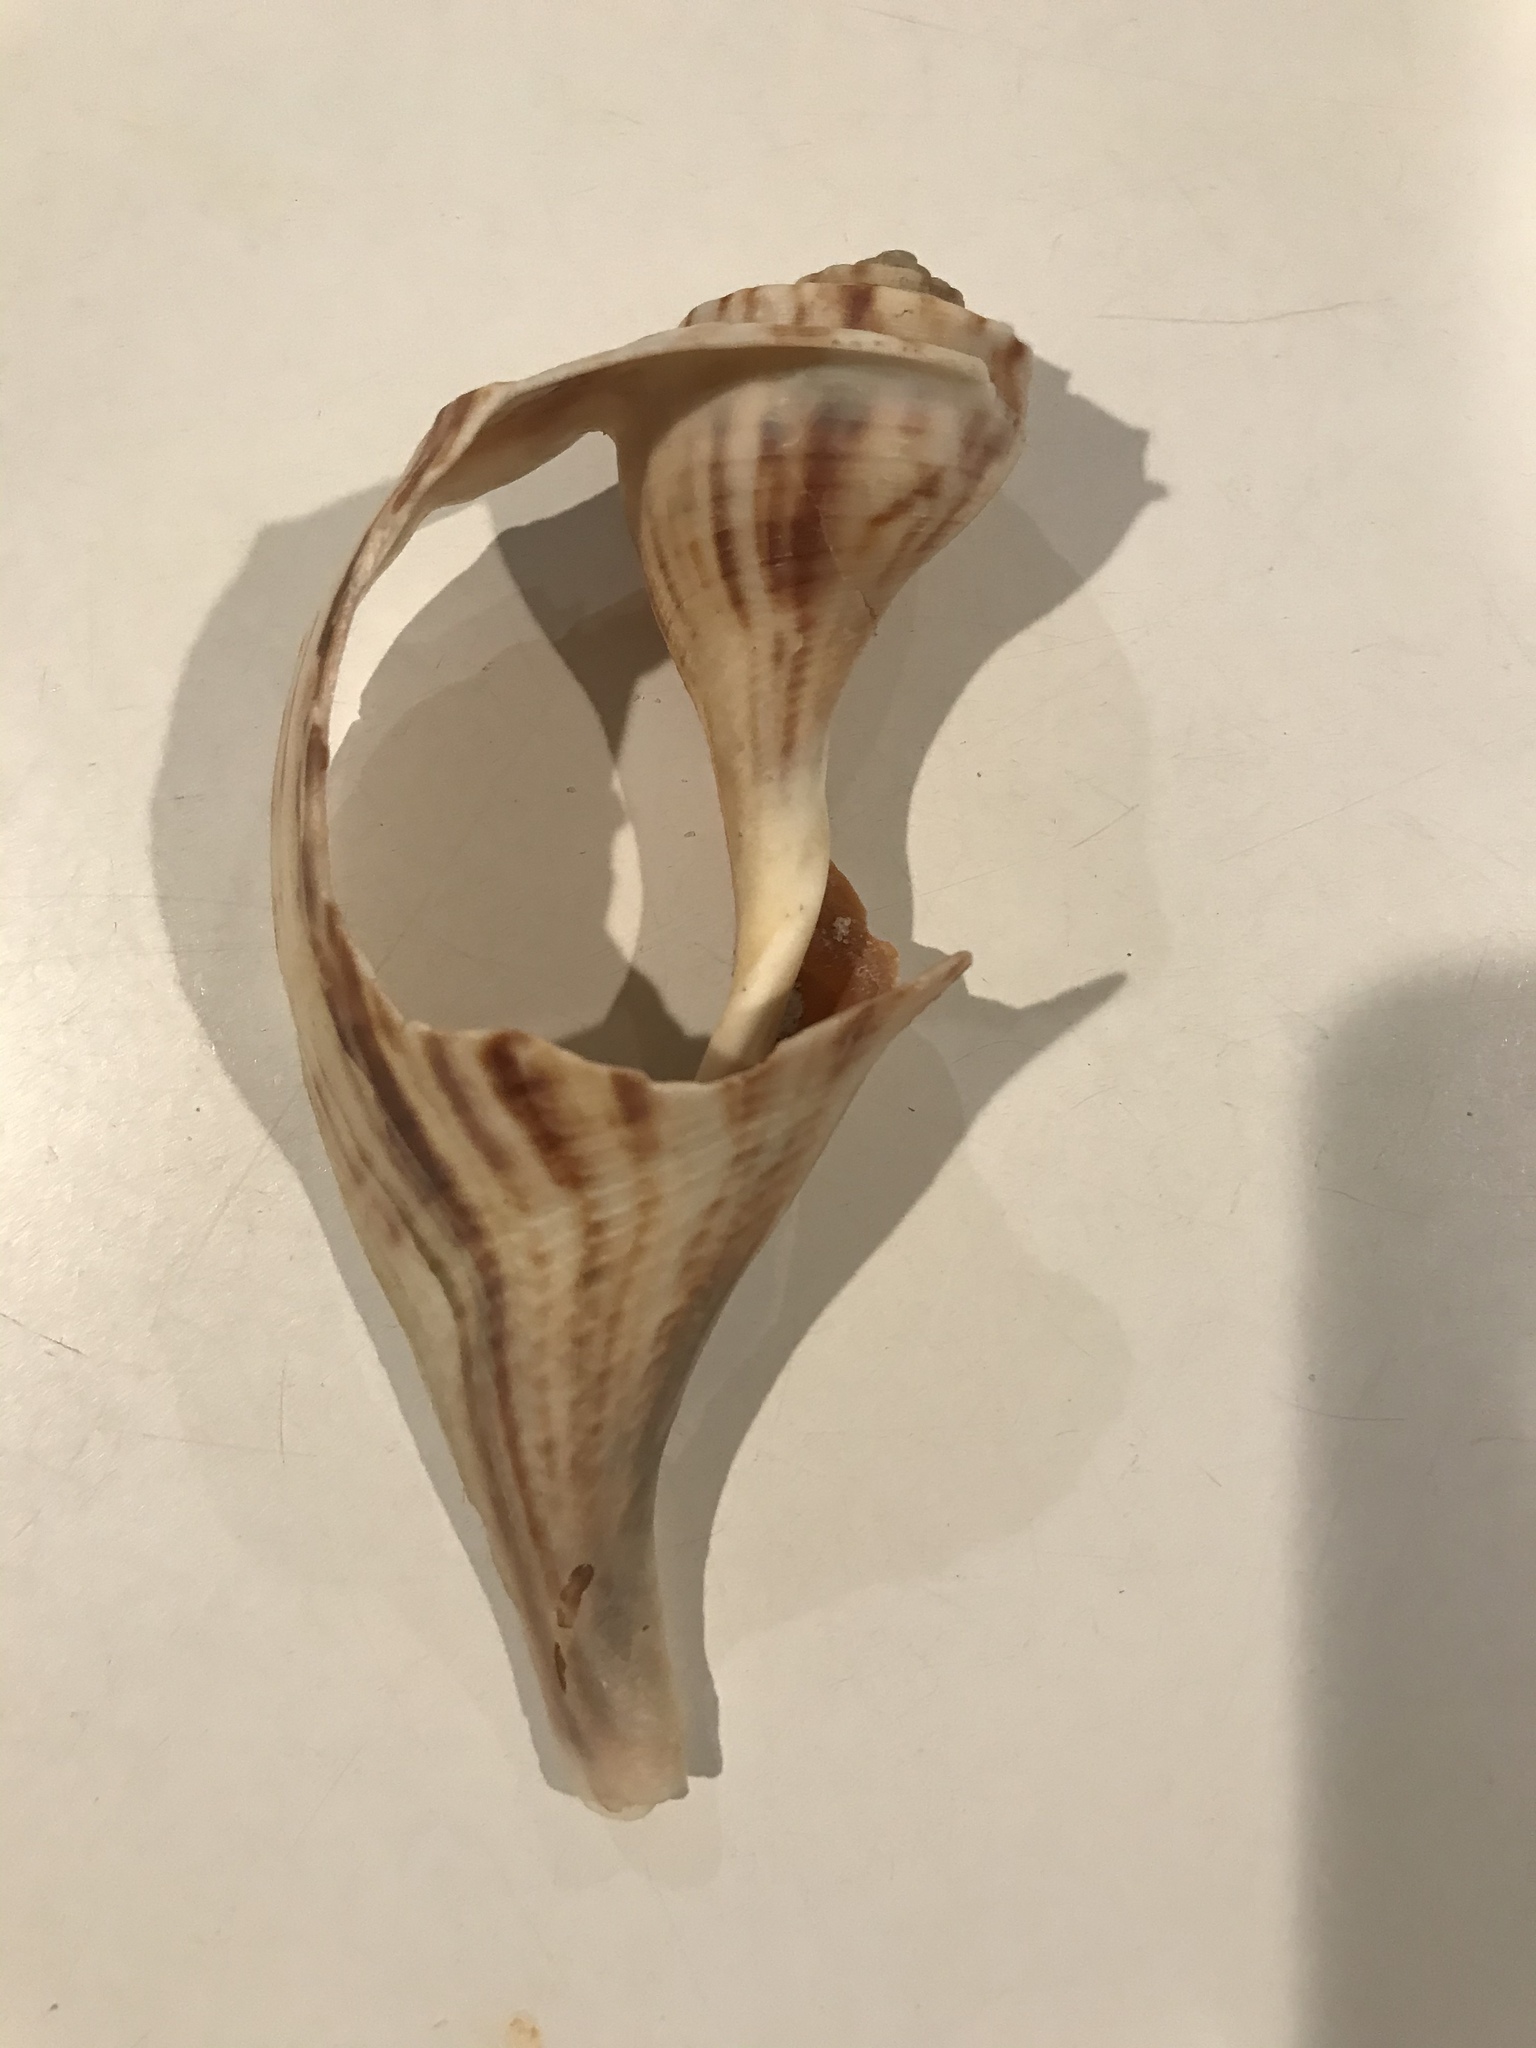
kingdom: Animalia
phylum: Mollusca
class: Gastropoda
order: Neogastropoda
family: Busyconidae
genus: Fulguropsis
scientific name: Fulguropsis pyruloides
